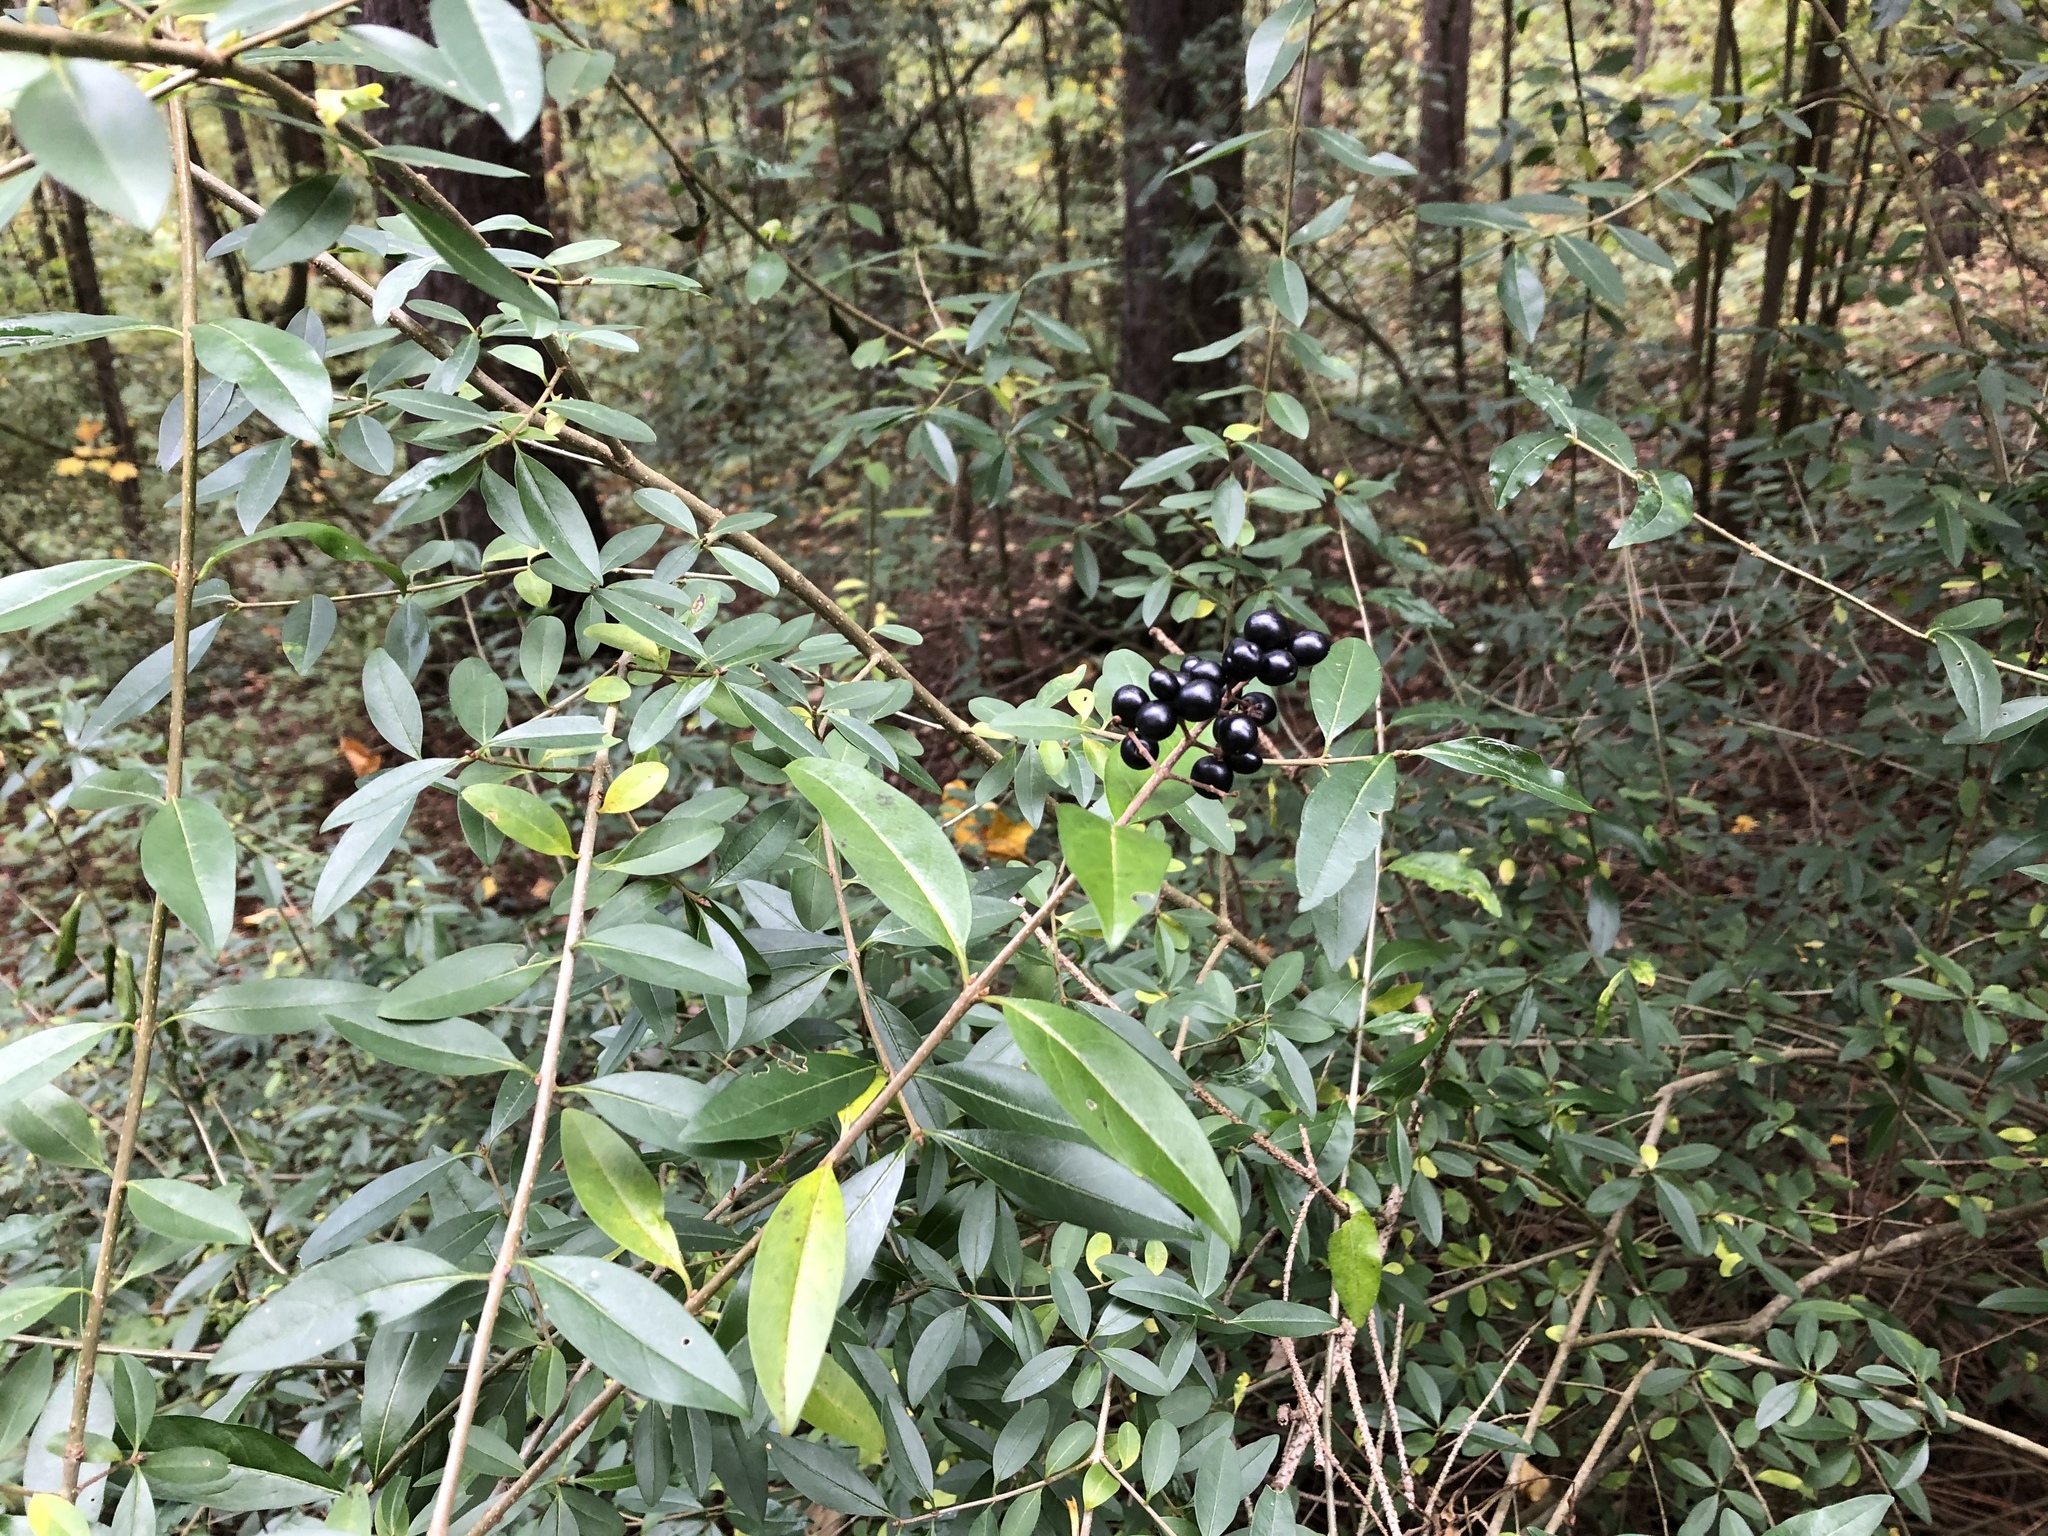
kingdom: Plantae
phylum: Tracheophyta
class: Magnoliopsida
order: Lamiales
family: Oleaceae
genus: Ligustrum
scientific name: Ligustrum vulgare
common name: Wild privet
